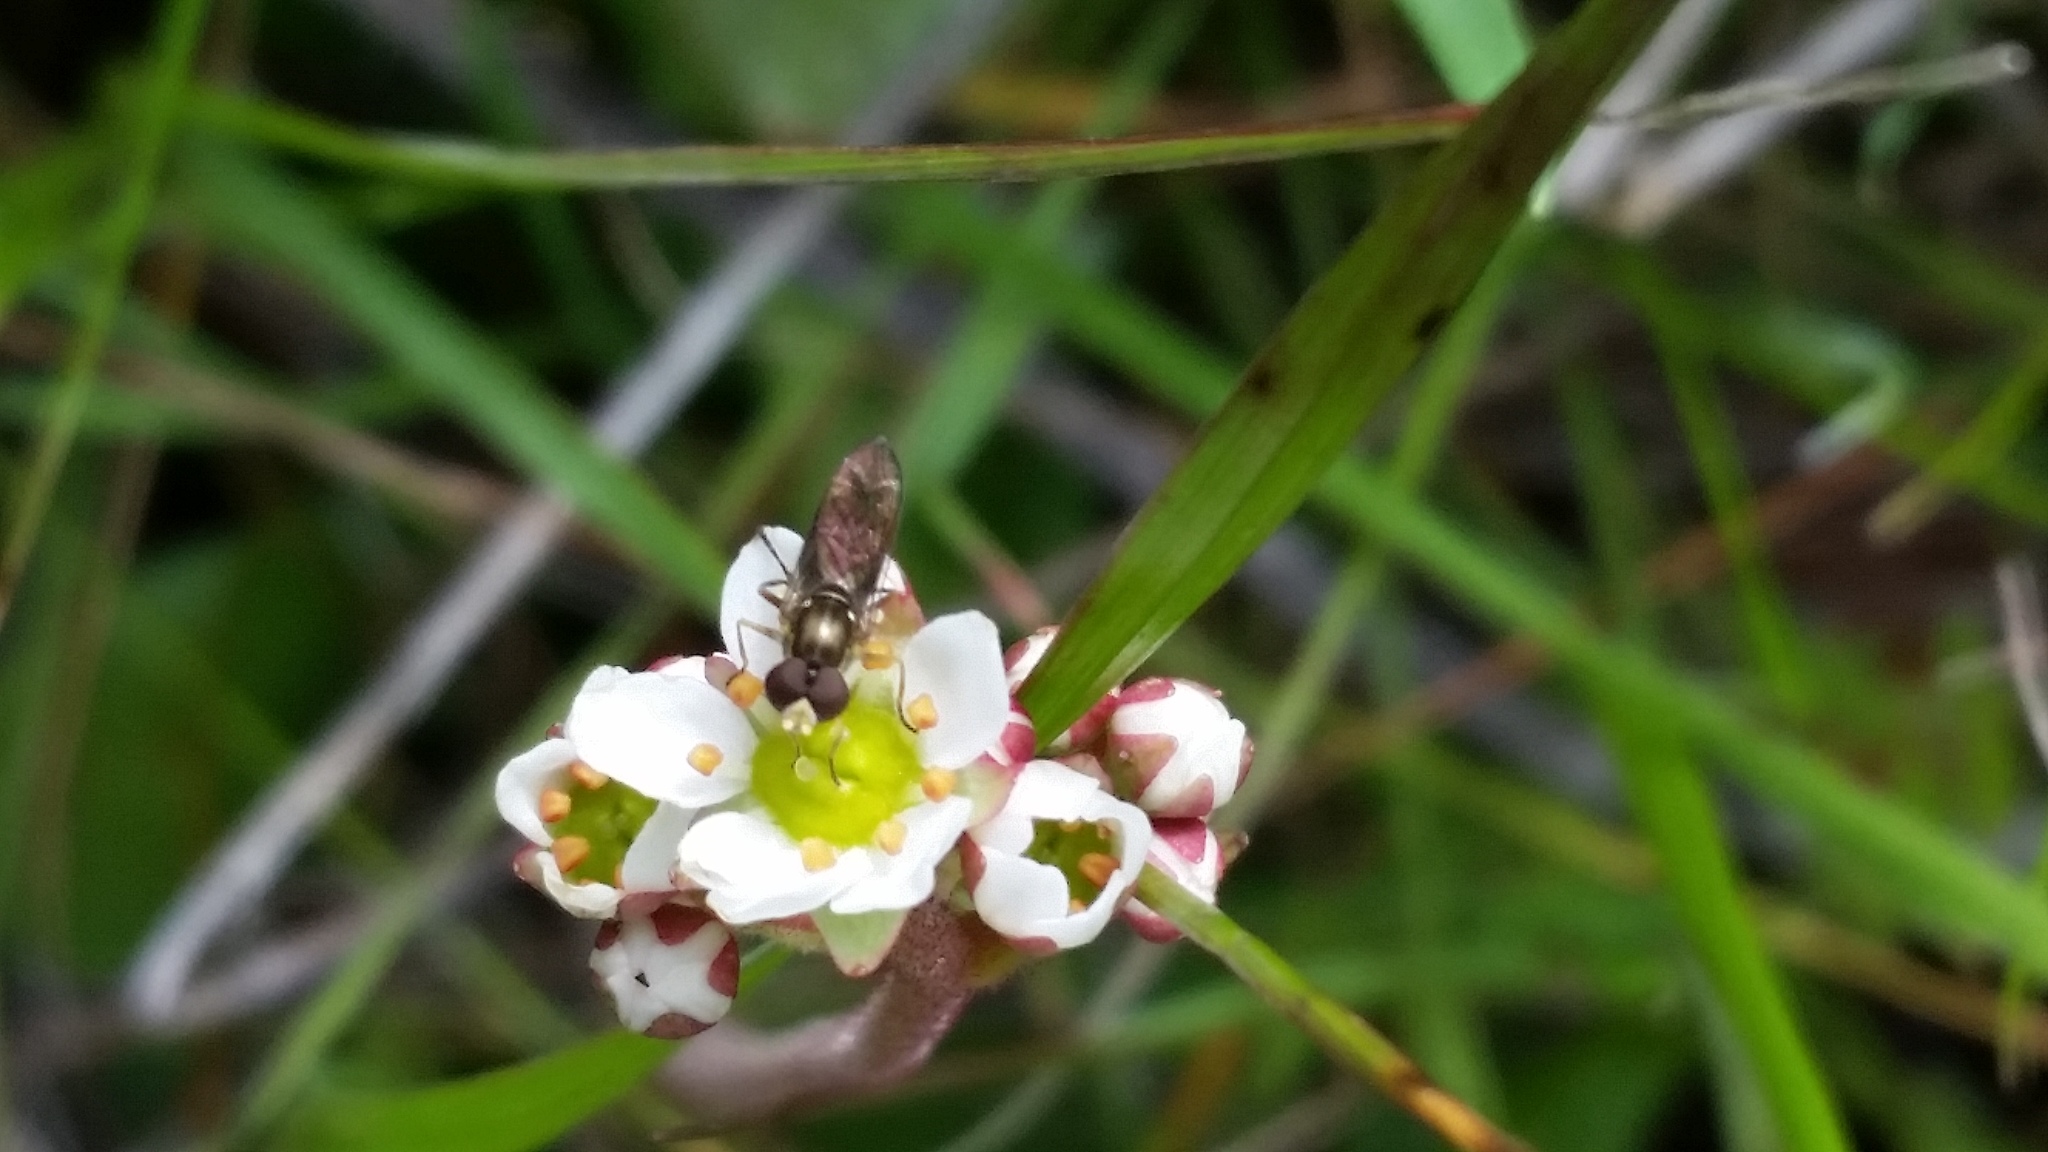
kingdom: Animalia
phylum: Arthropoda
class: Insecta
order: Diptera
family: Syrphidae
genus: Toxomerus
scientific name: Toxomerus marginatus
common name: Syrphid fly
